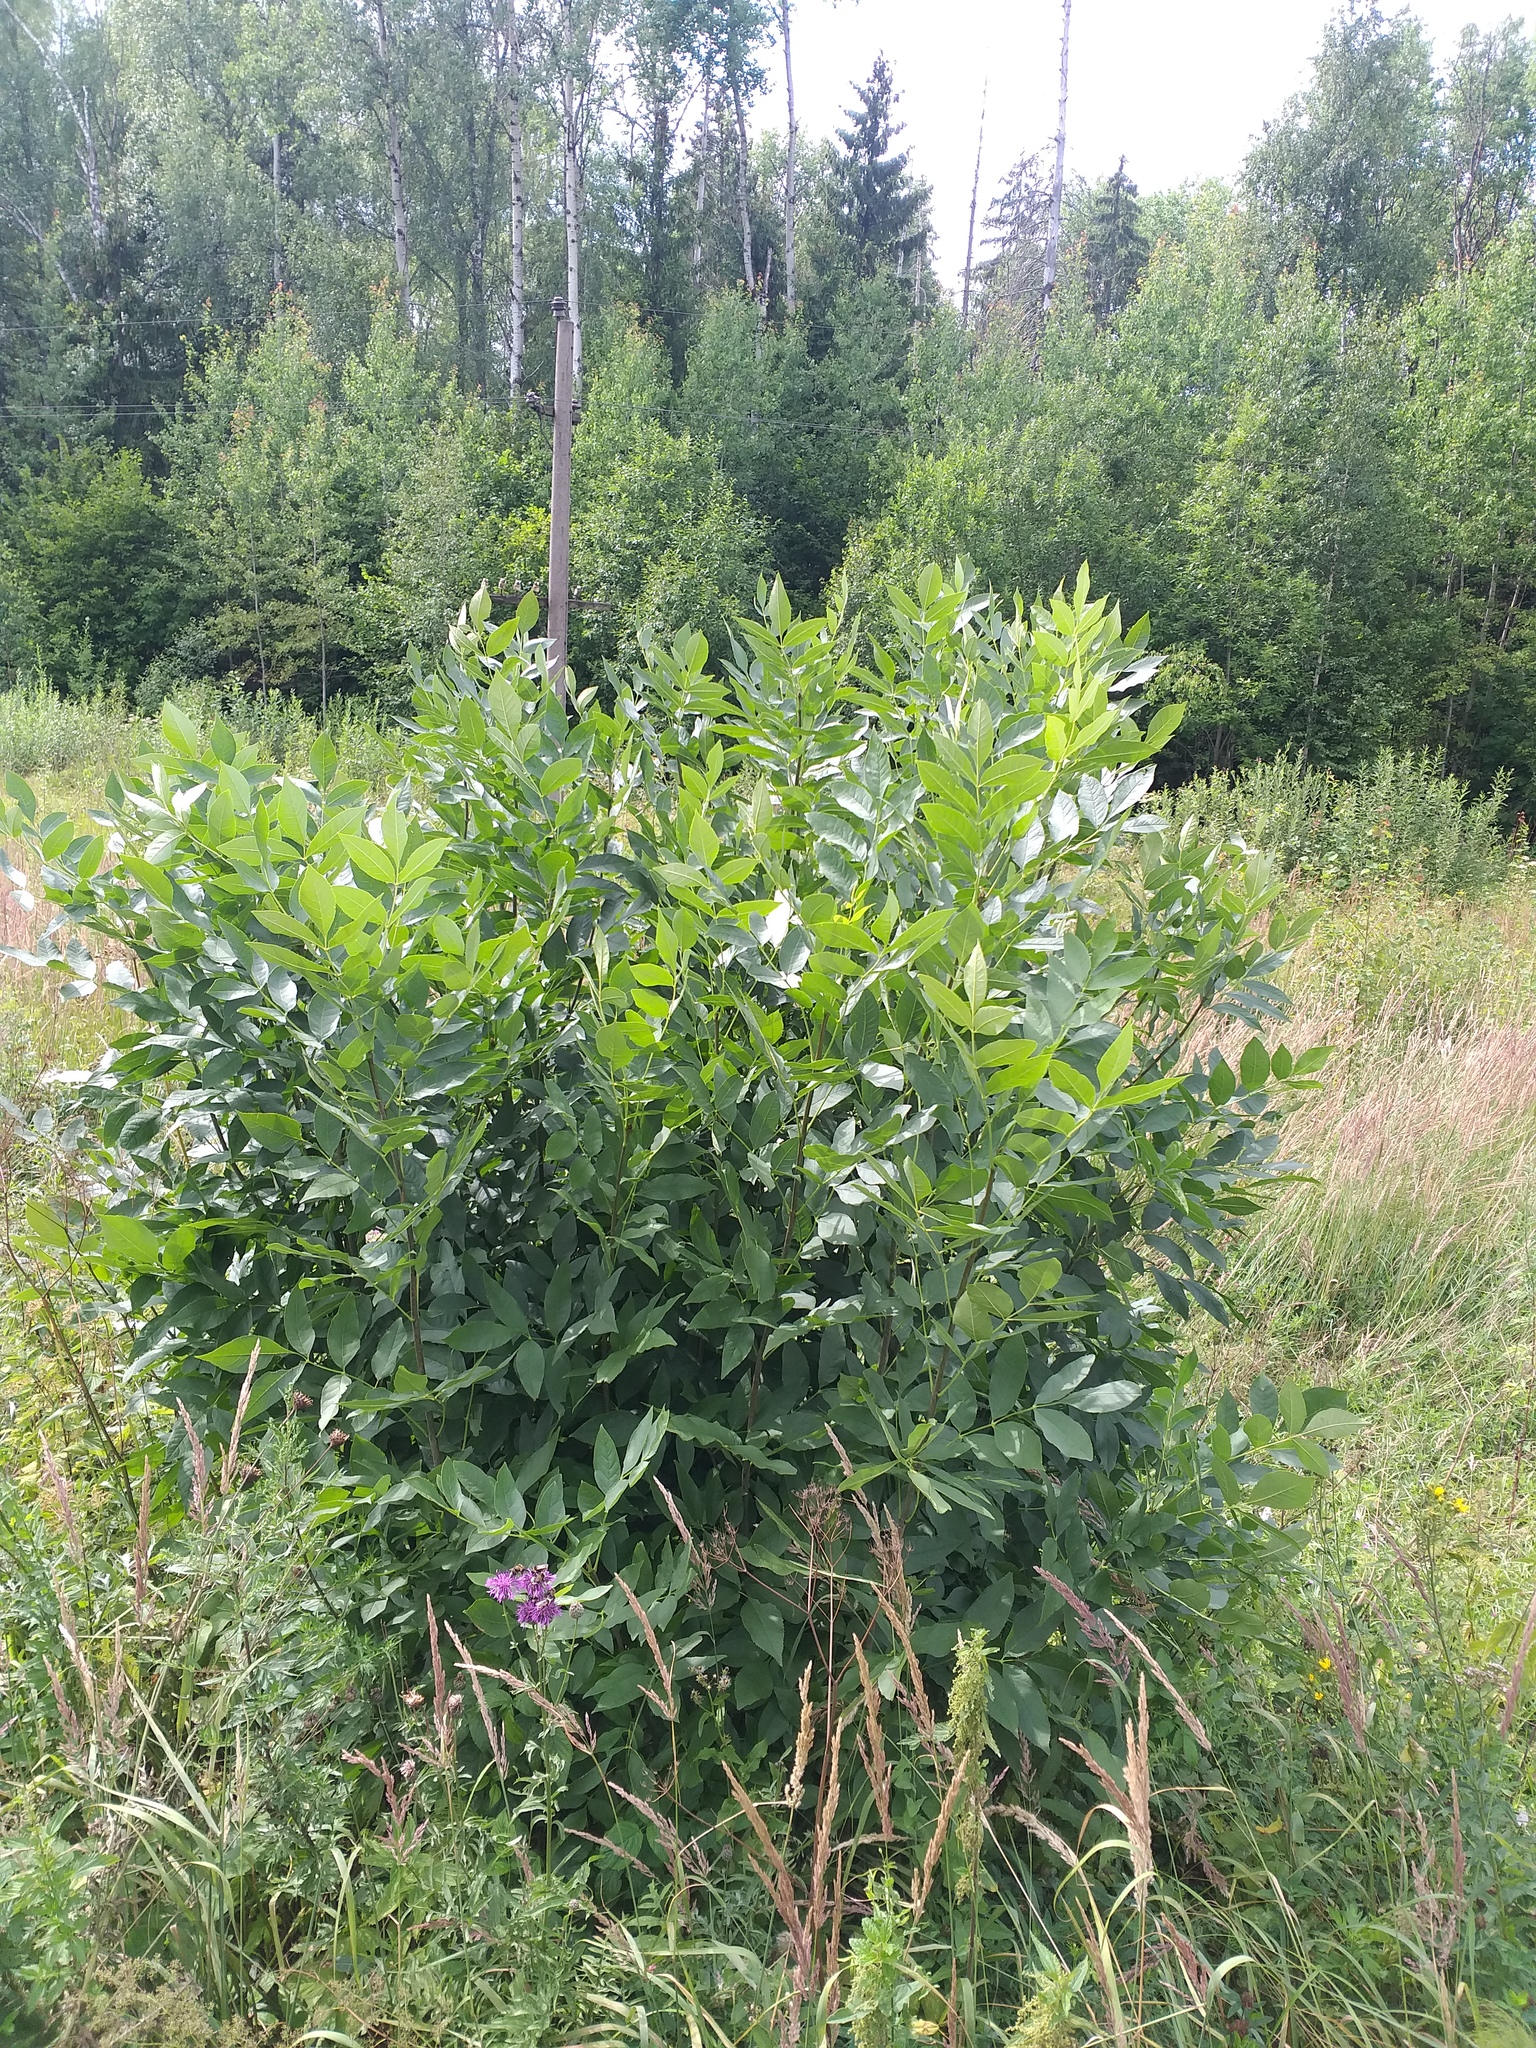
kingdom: Plantae
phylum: Tracheophyta
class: Magnoliopsida
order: Lamiales
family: Oleaceae
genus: Fraxinus
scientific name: Fraxinus pennsylvanica
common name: Green ash
